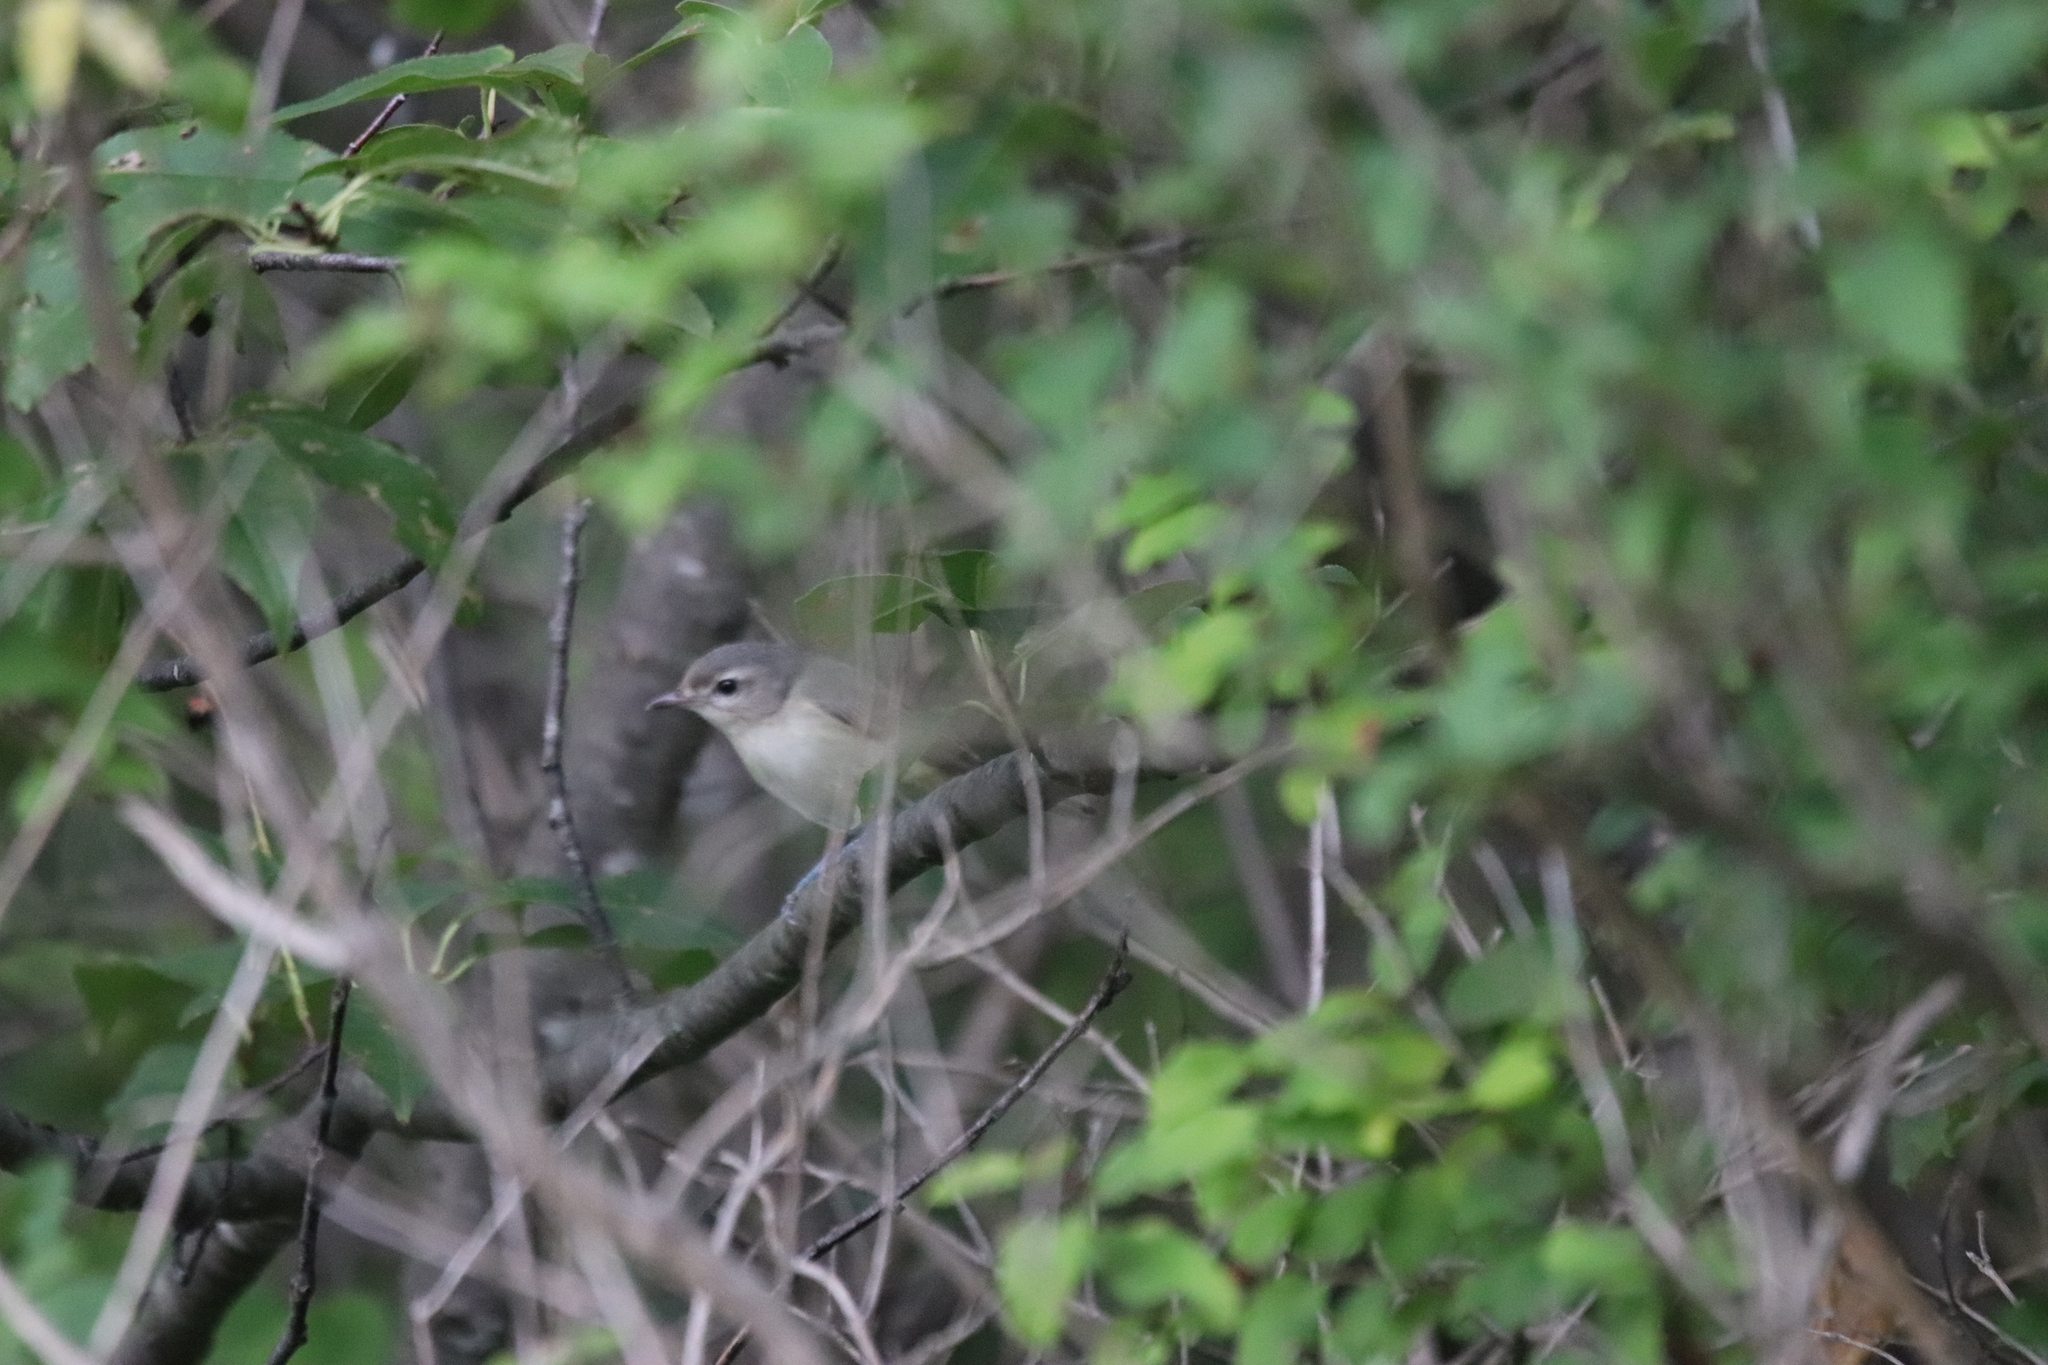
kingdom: Animalia
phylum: Chordata
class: Aves
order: Passeriformes
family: Vireonidae
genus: Vireo
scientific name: Vireo gilvus
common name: Warbling vireo
